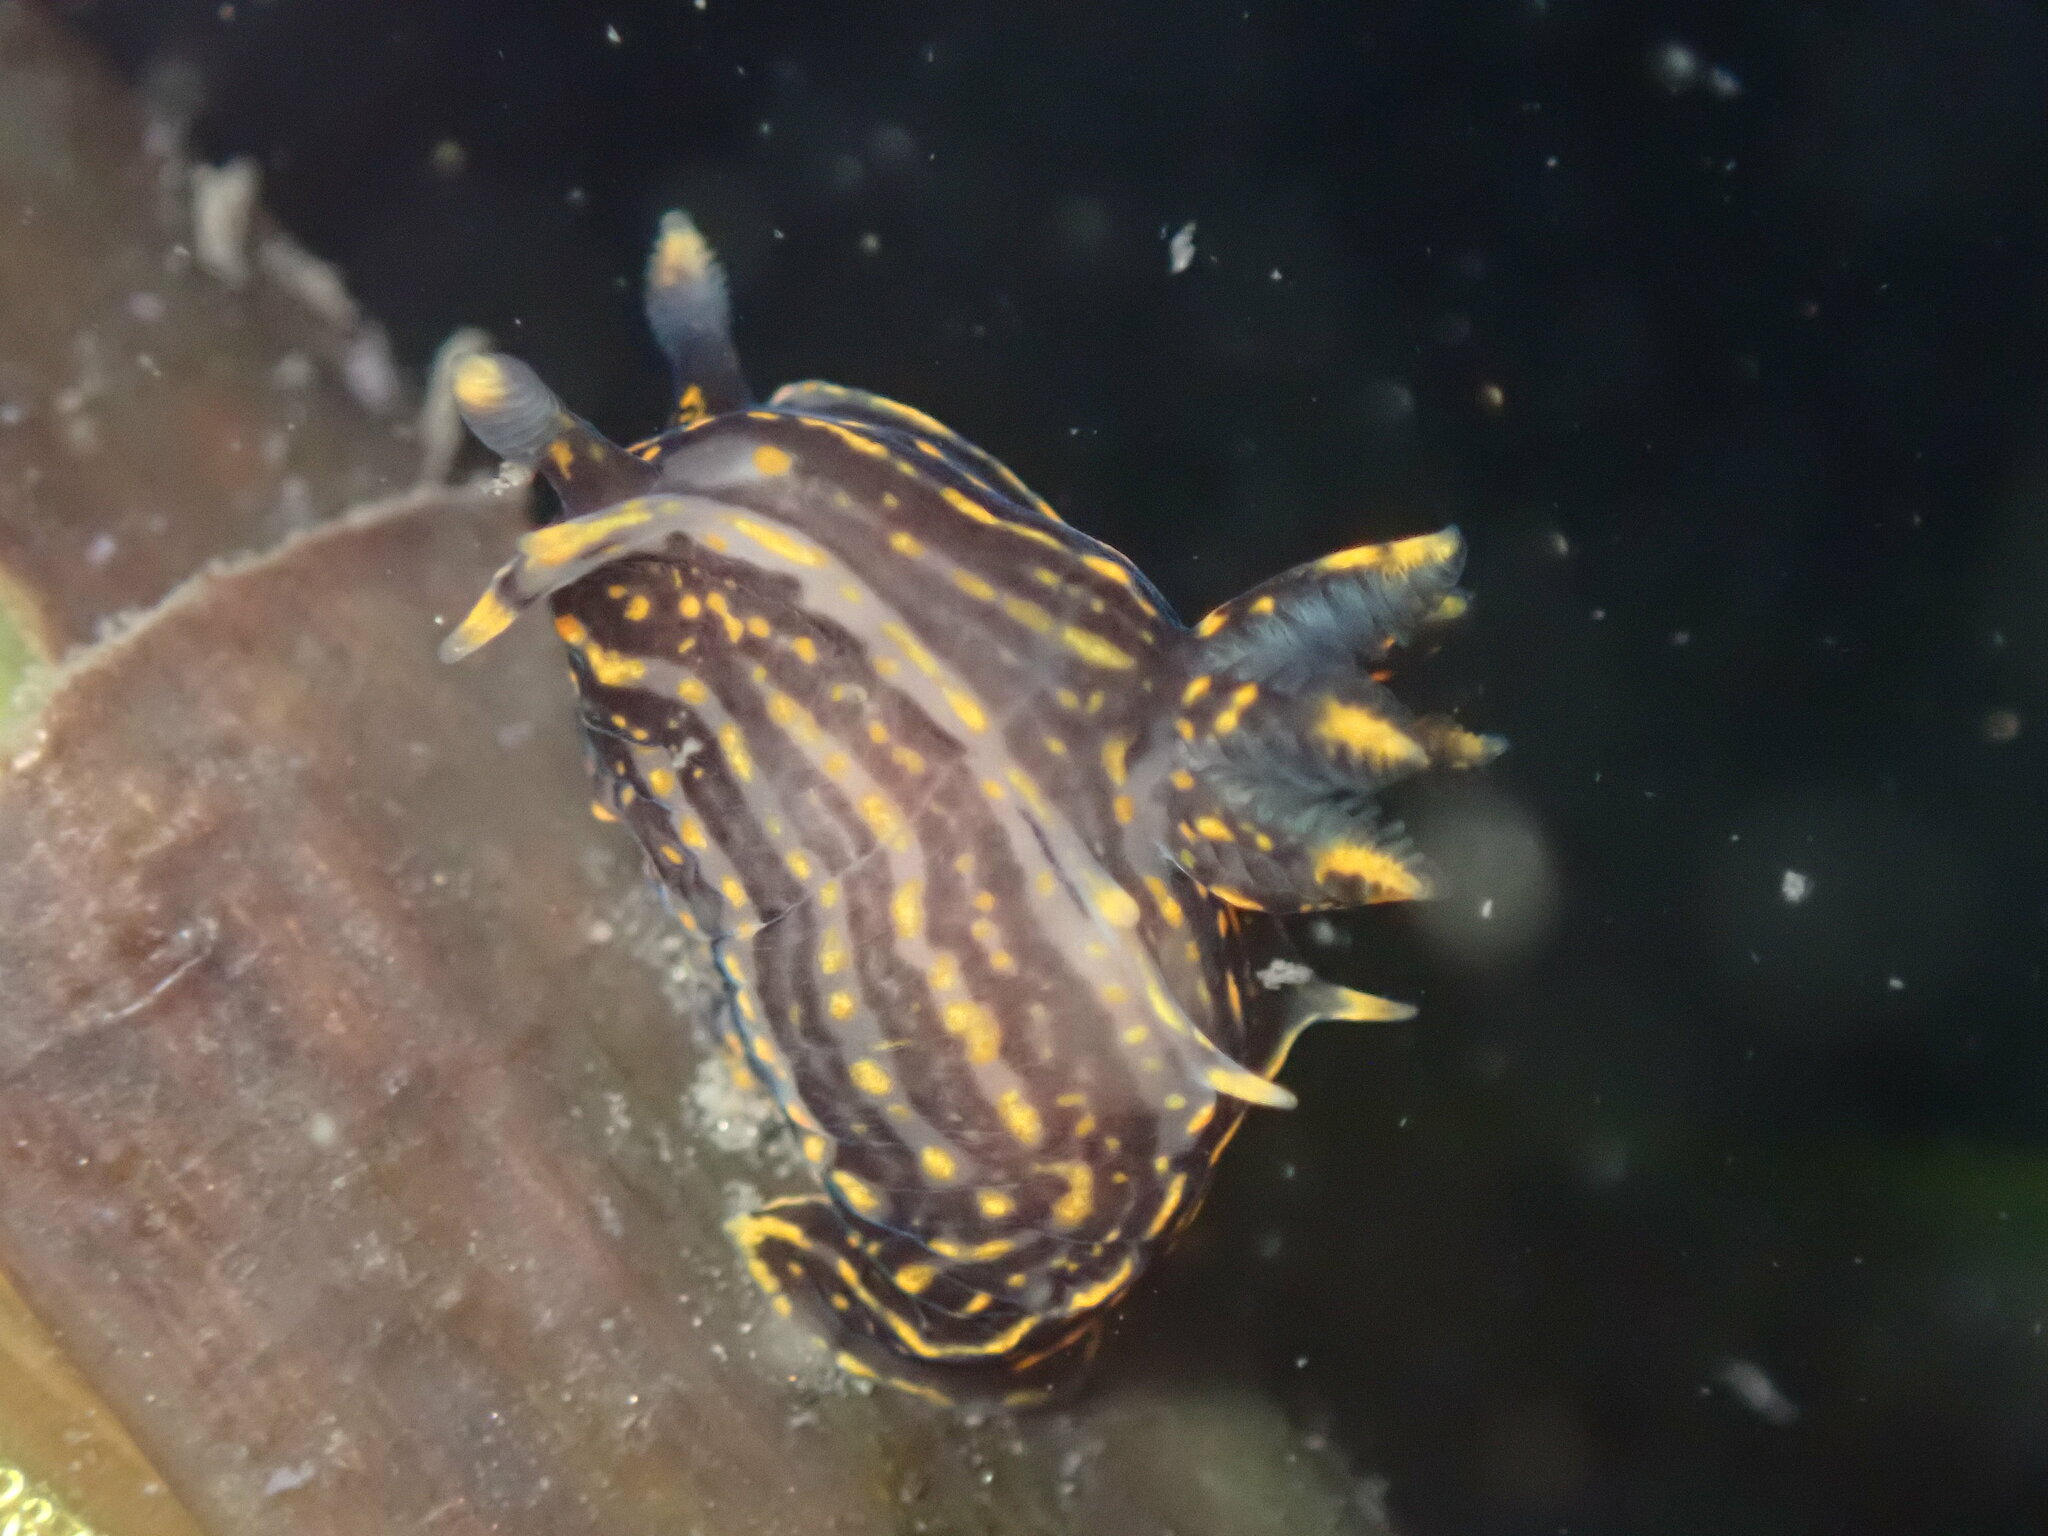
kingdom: Animalia
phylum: Mollusca
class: Gastropoda
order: Nudibranchia
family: Polyceridae
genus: Polycera
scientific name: Polycera atra
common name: Orange-spike polycera
